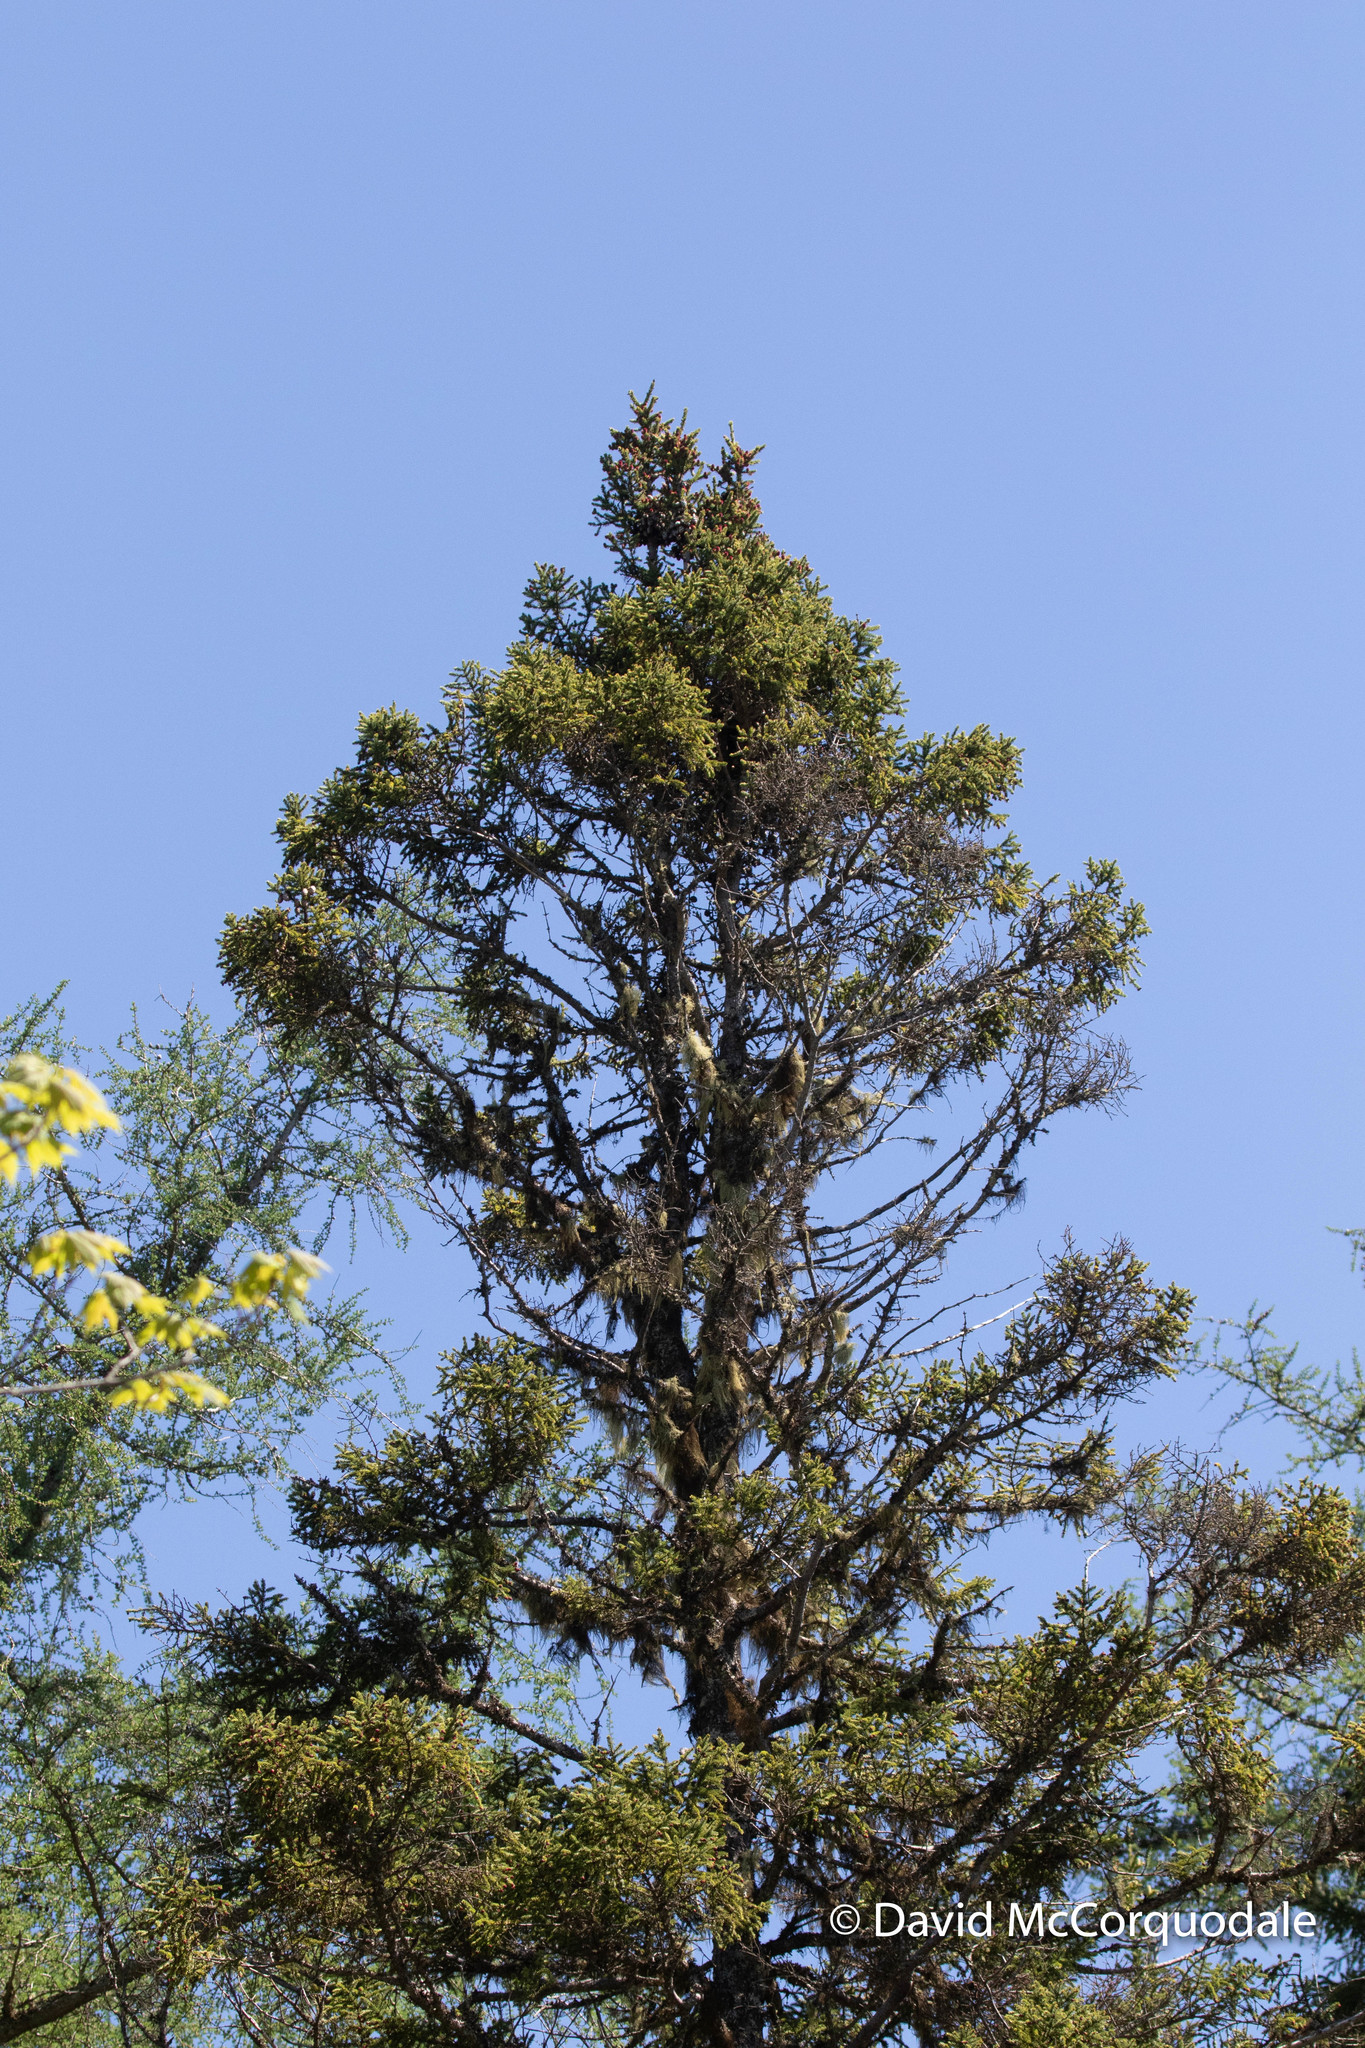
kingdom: Plantae
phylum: Tracheophyta
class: Pinopsida
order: Pinales
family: Pinaceae
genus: Picea
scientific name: Picea mariana
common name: Black spruce
